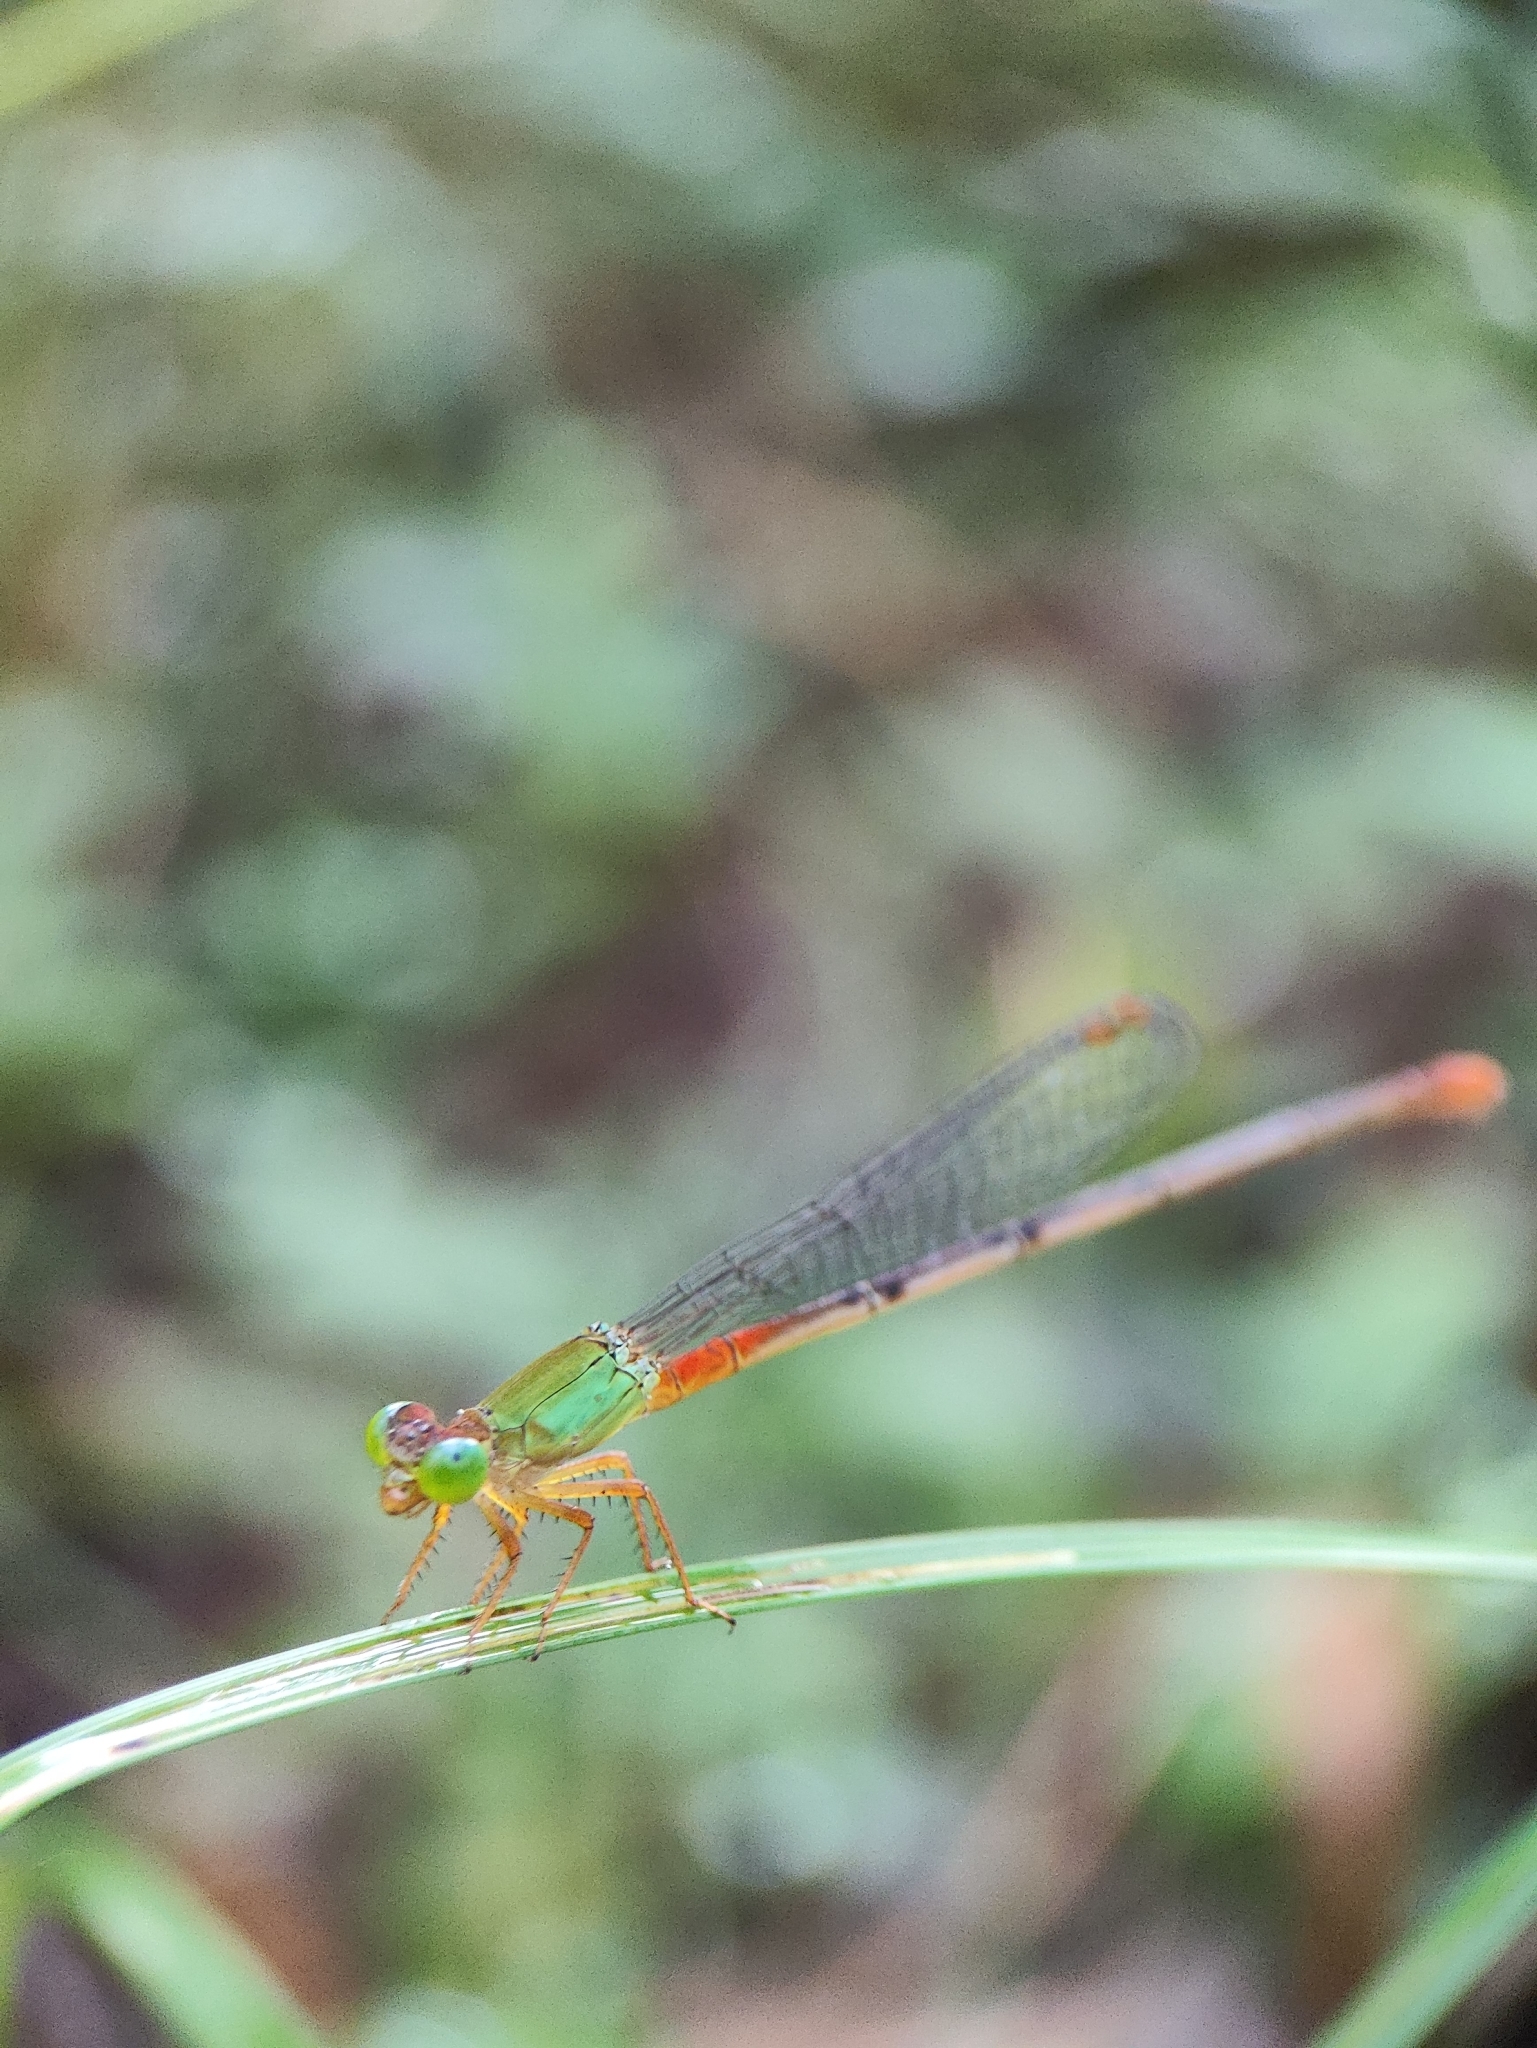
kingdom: Animalia
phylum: Arthropoda
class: Insecta
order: Odonata
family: Coenagrionidae
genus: Ceriagrion
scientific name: Ceriagrion cerinorubellum
